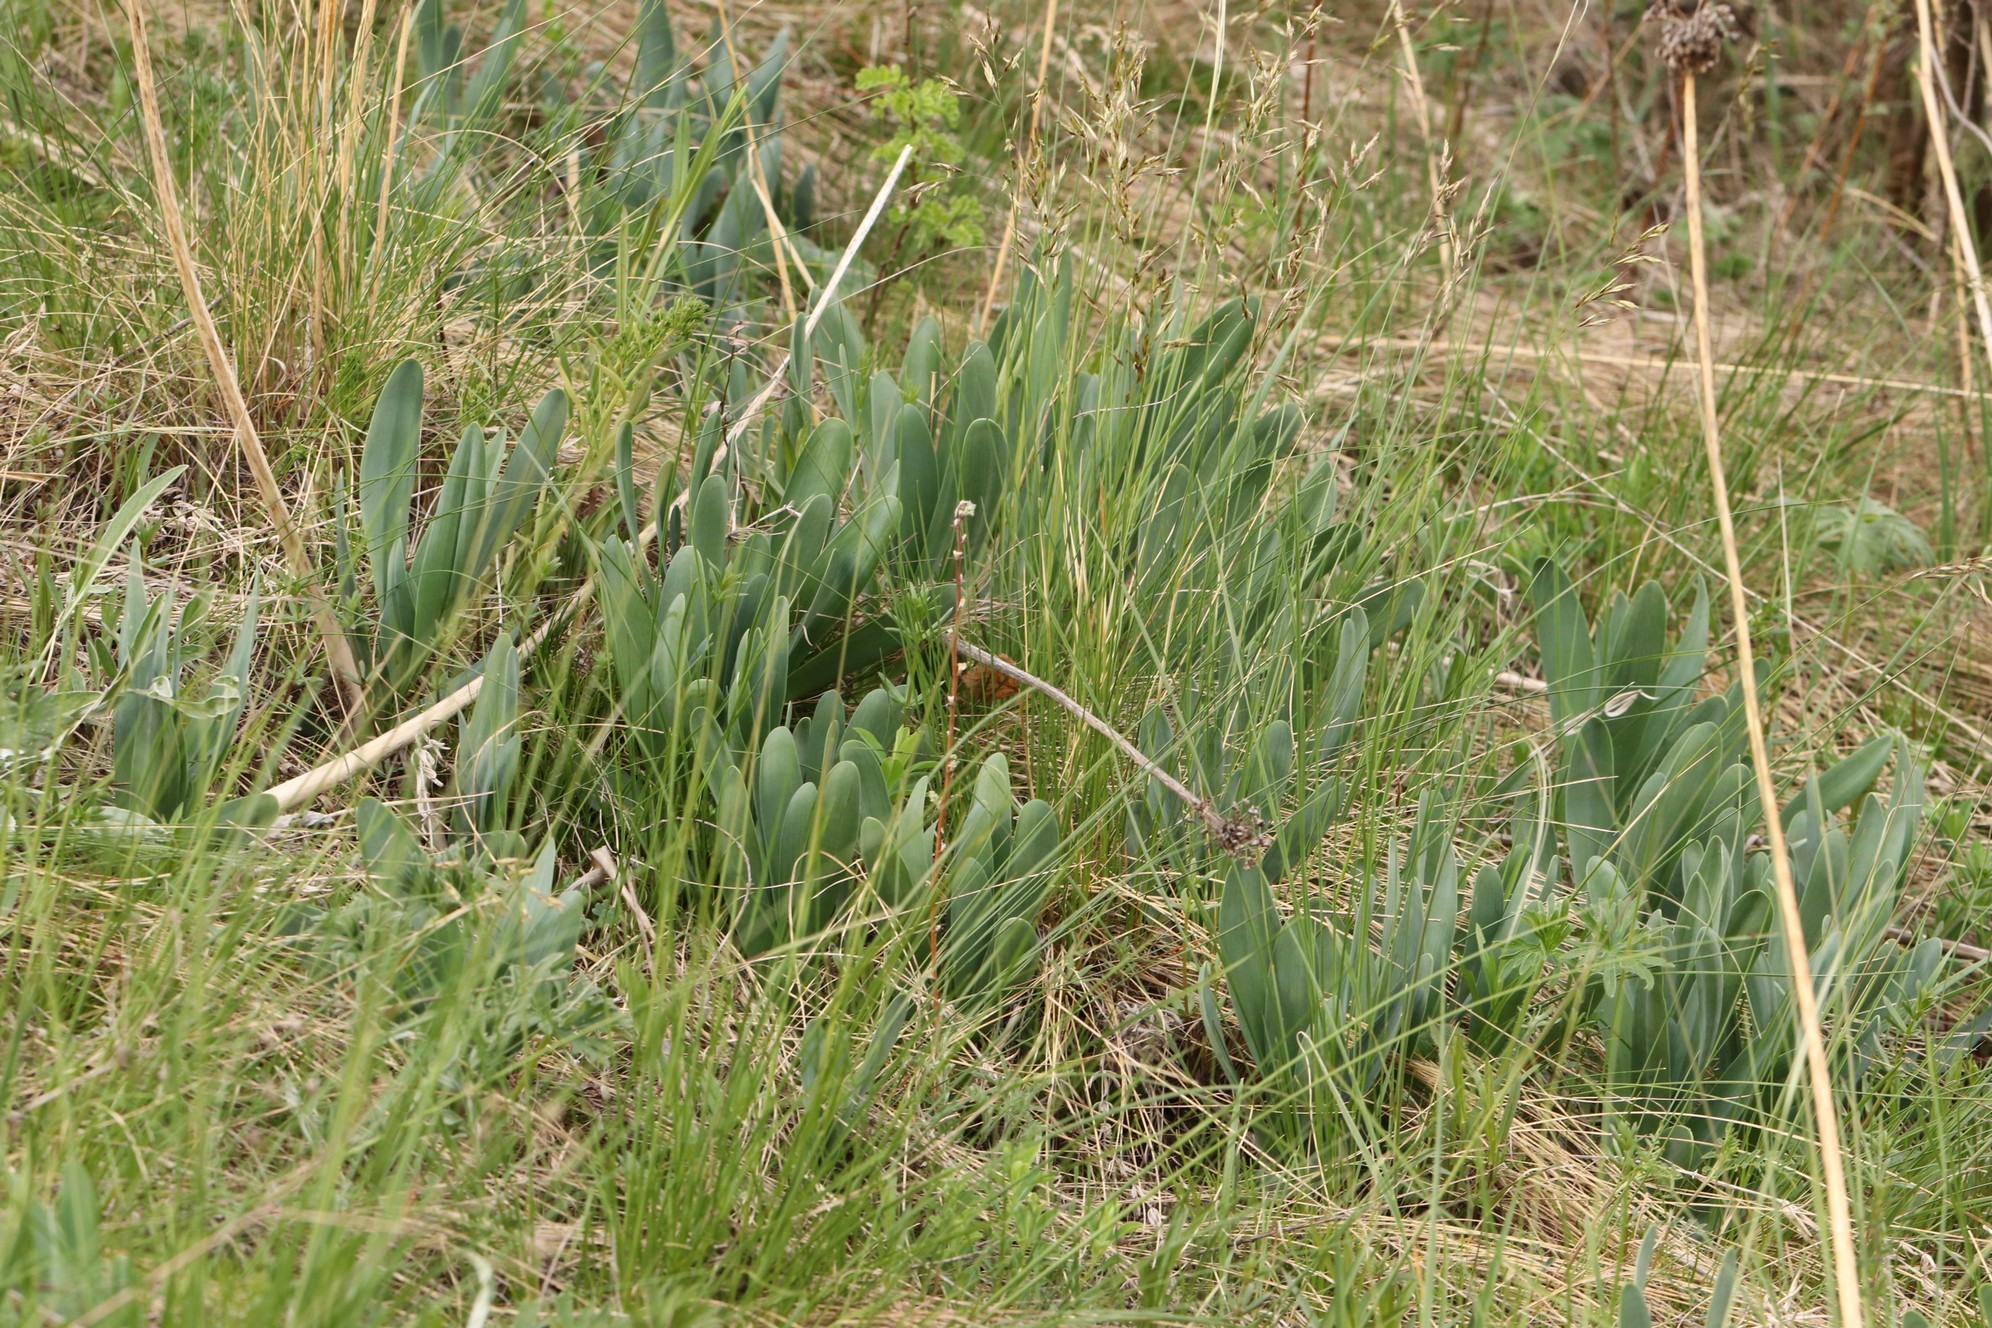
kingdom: Plantae
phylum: Tracheophyta
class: Liliopsida
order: Asparagales
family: Amaryllidaceae
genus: Allium
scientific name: Allium nutans
